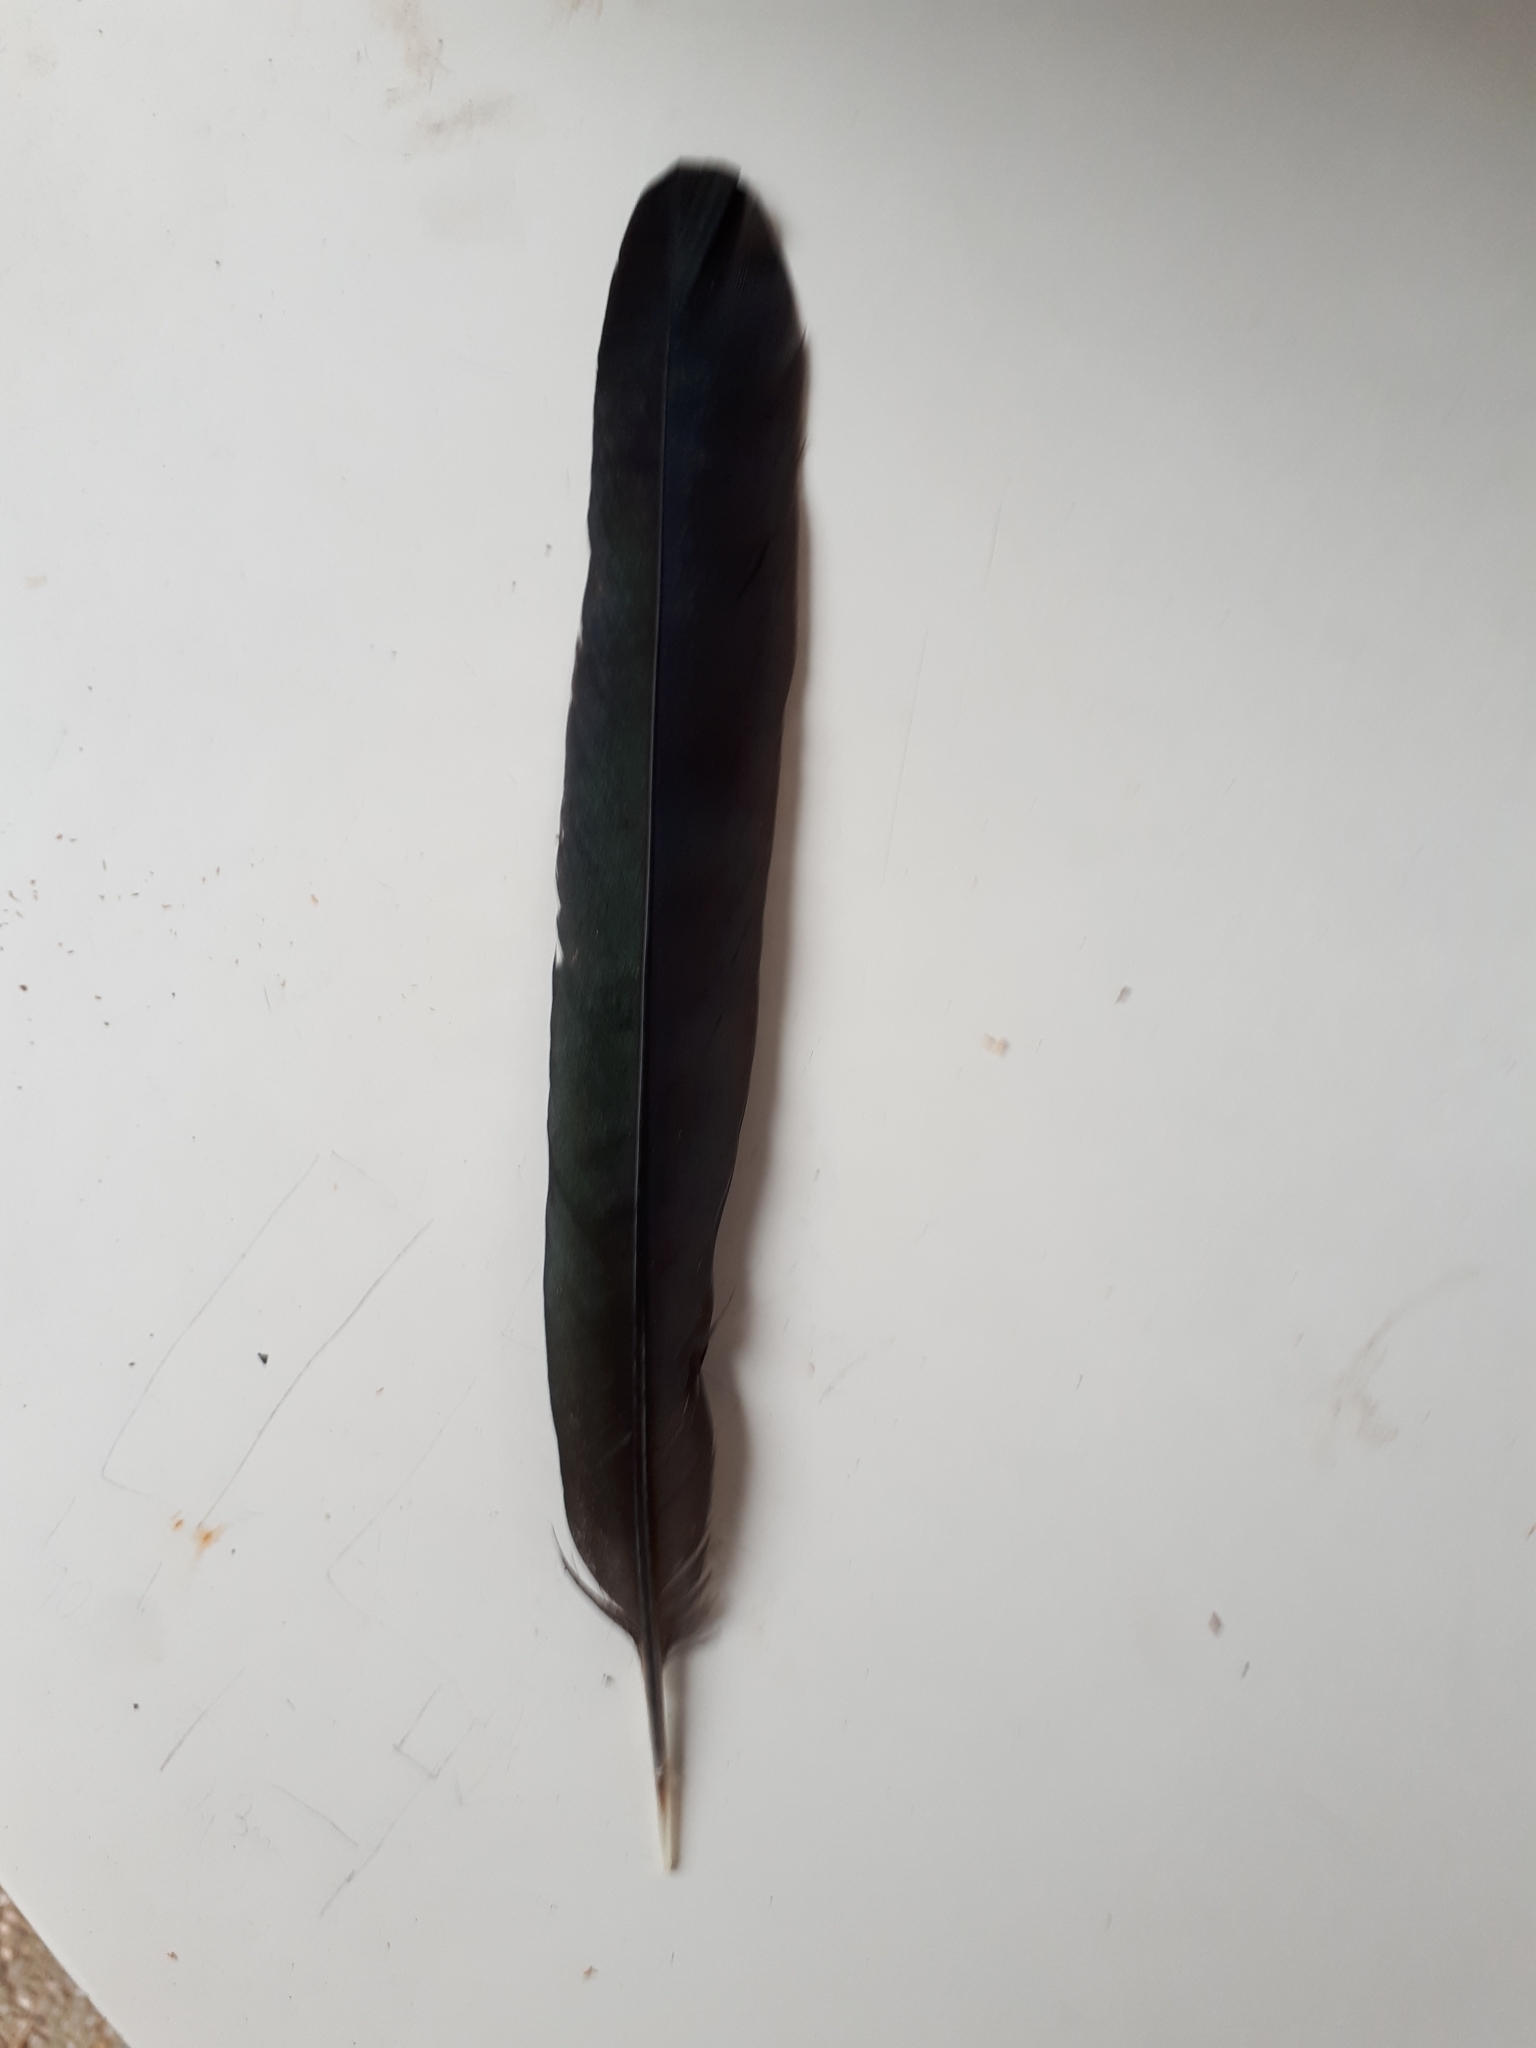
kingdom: Animalia
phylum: Chordata
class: Aves
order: Passeriformes
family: Corvidae
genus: Pica
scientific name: Pica pica
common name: Eurasian magpie
